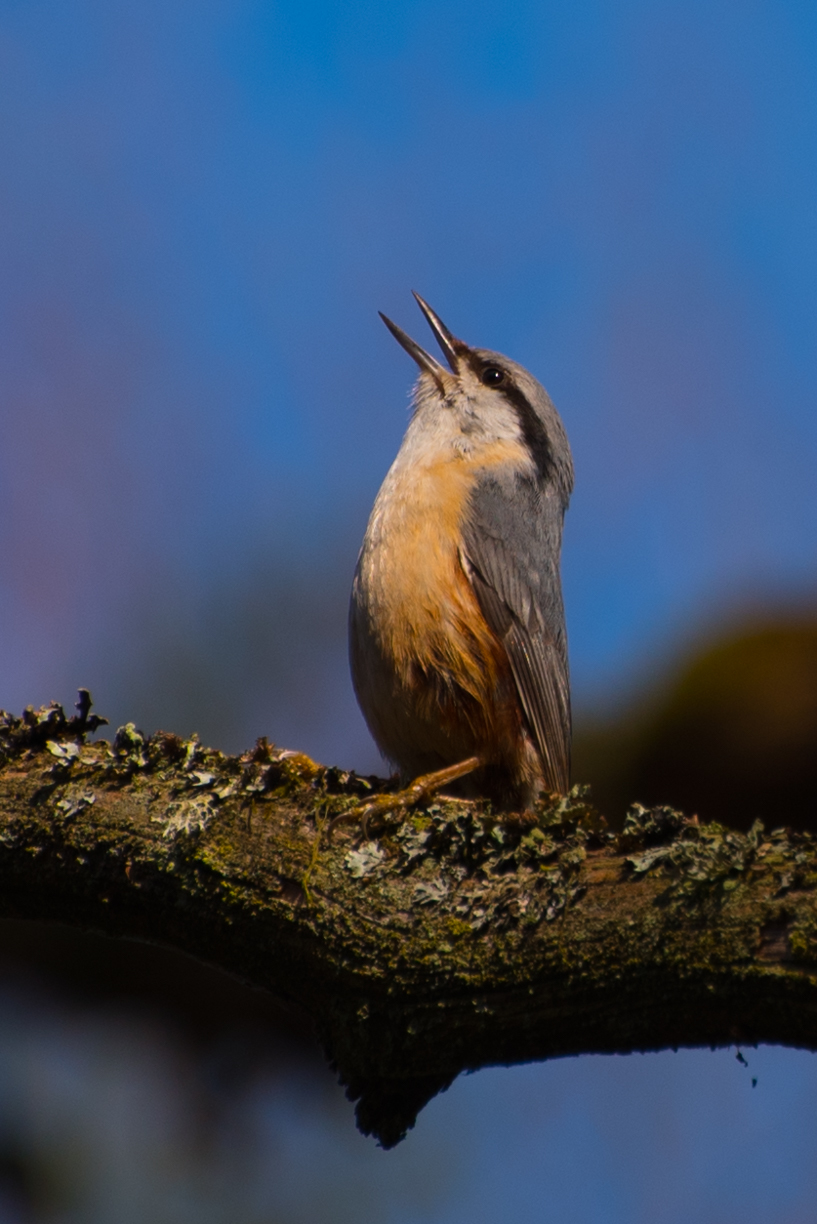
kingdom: Animalia
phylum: Chordata
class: Aves
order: Passeriformes
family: Sittidae
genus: Sitta
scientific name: Sitta europaea
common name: Eurasian nuthatch
